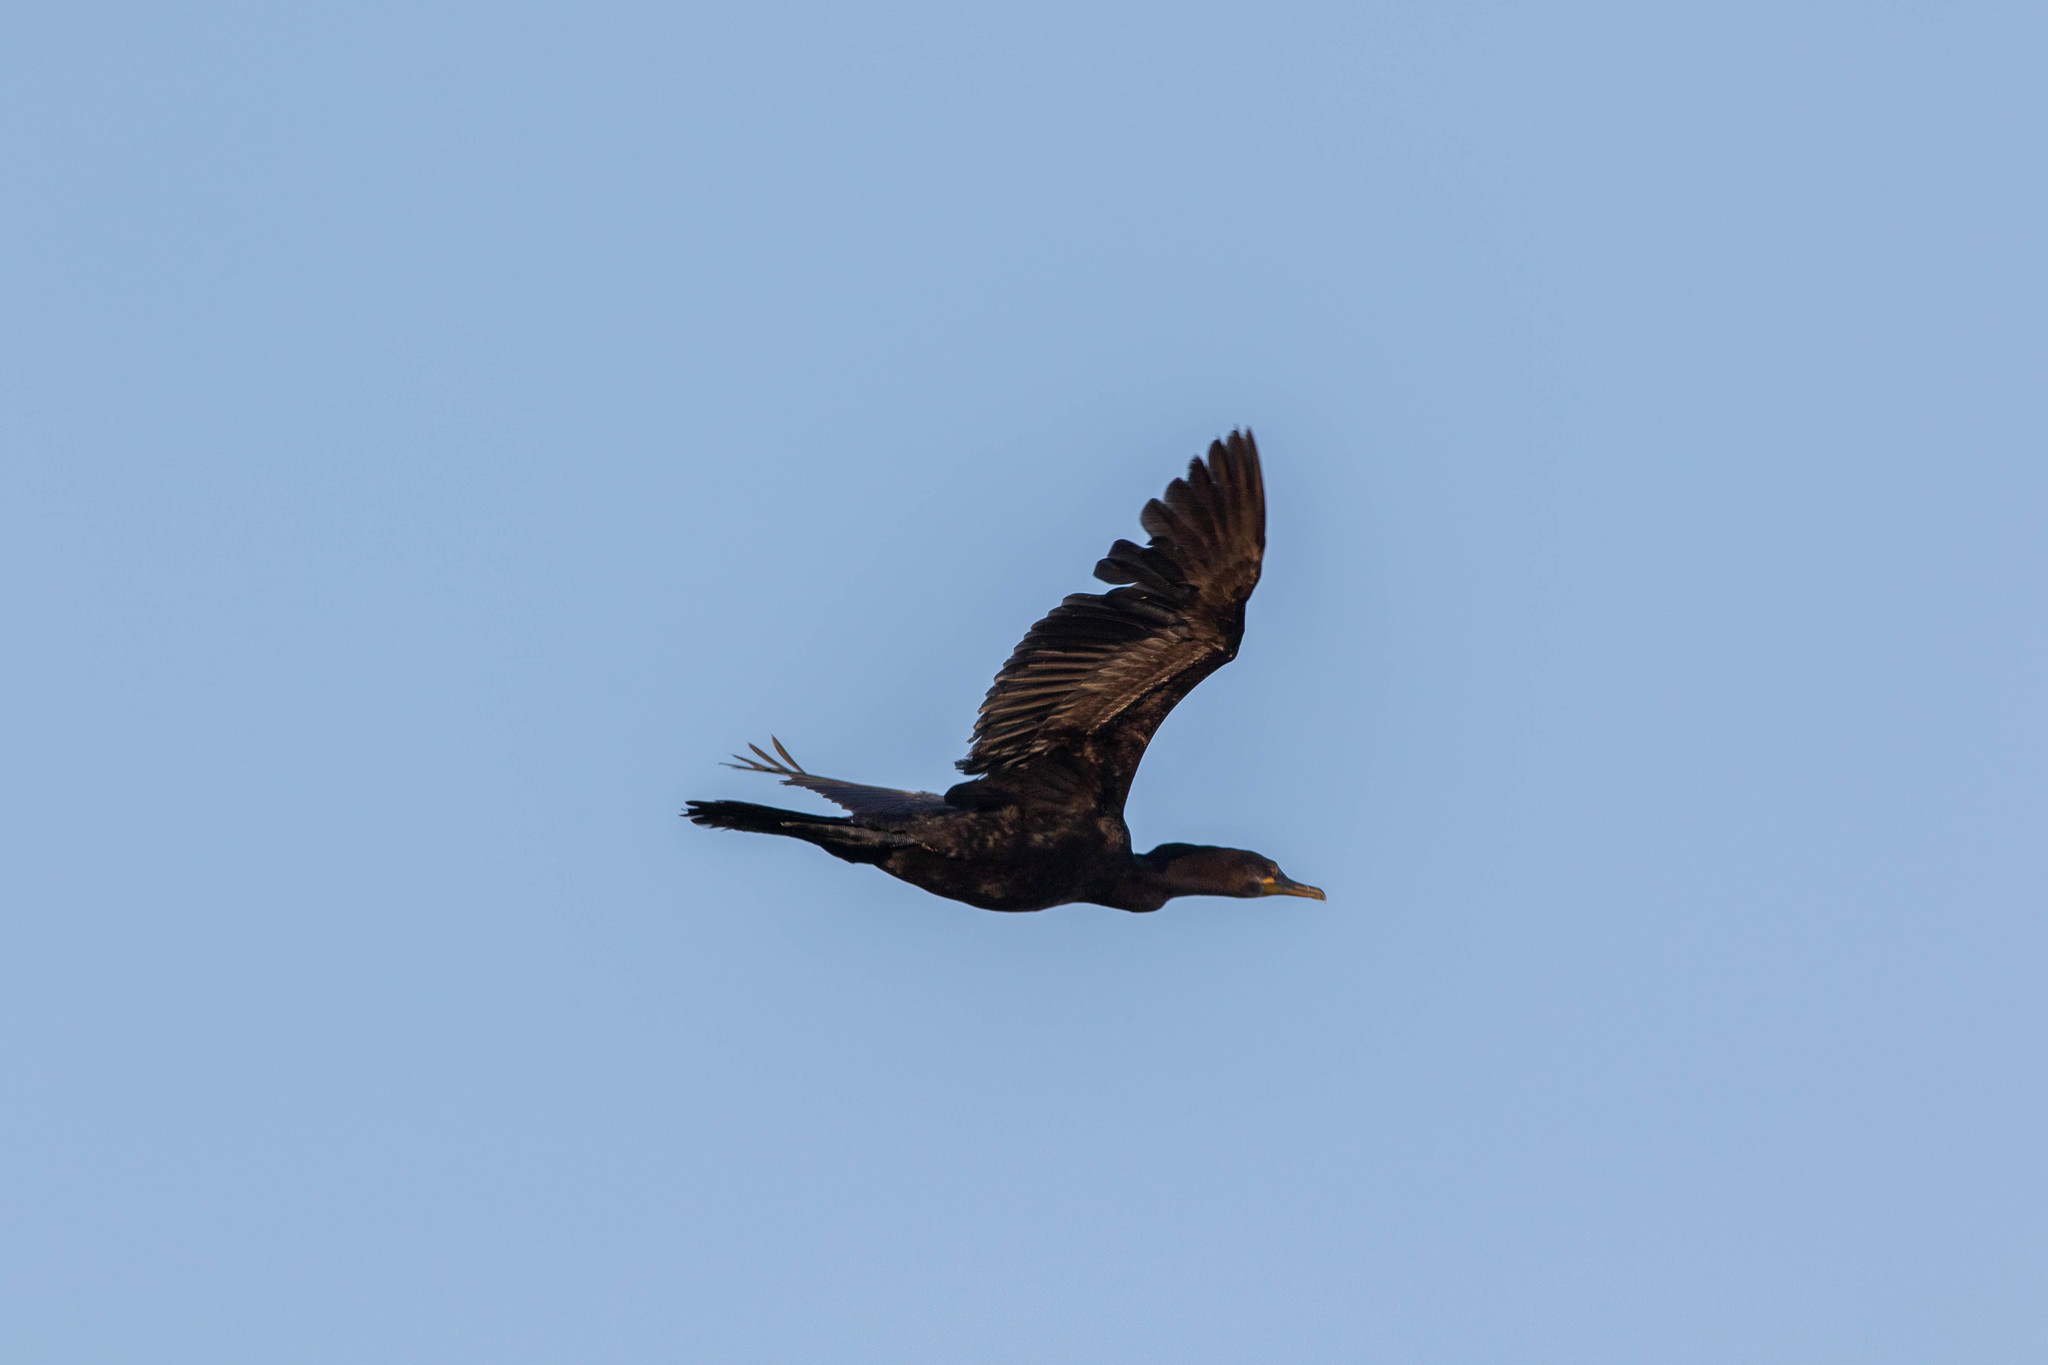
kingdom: Animalia
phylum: Chordata
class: Aves
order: Suliformes
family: Phalacrocoracidae
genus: Phalacrocorax
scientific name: Phalacrocorax brasilianus
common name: Neotropic cormorant
